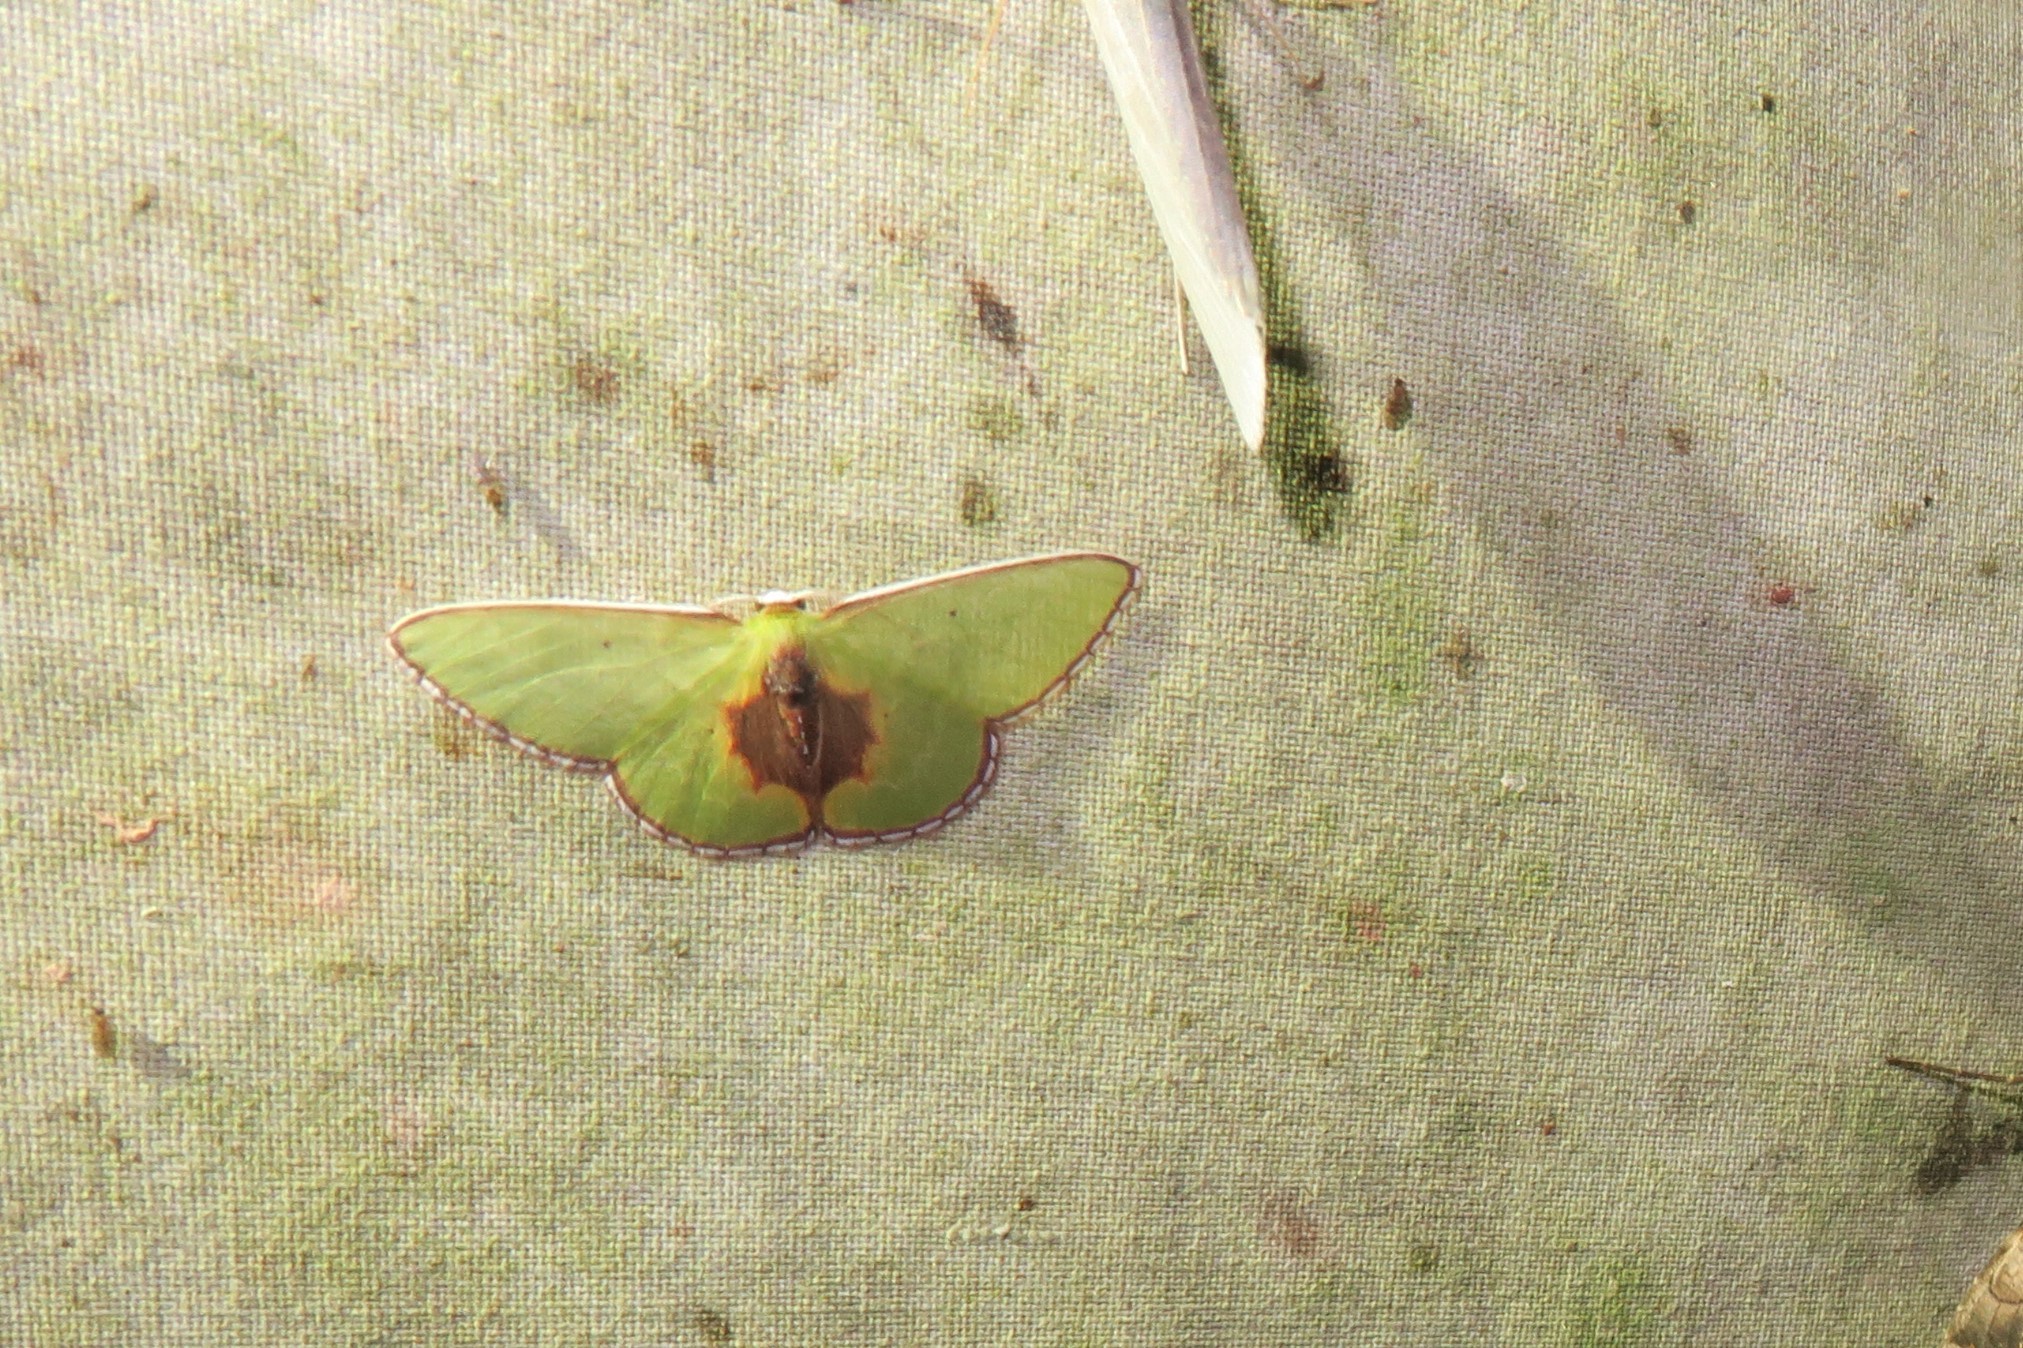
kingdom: Animalia
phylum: Arthropoda
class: Insecta
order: Lepidoptera
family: Geometridae
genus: Synchlora
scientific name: Synchlora astraeoides
